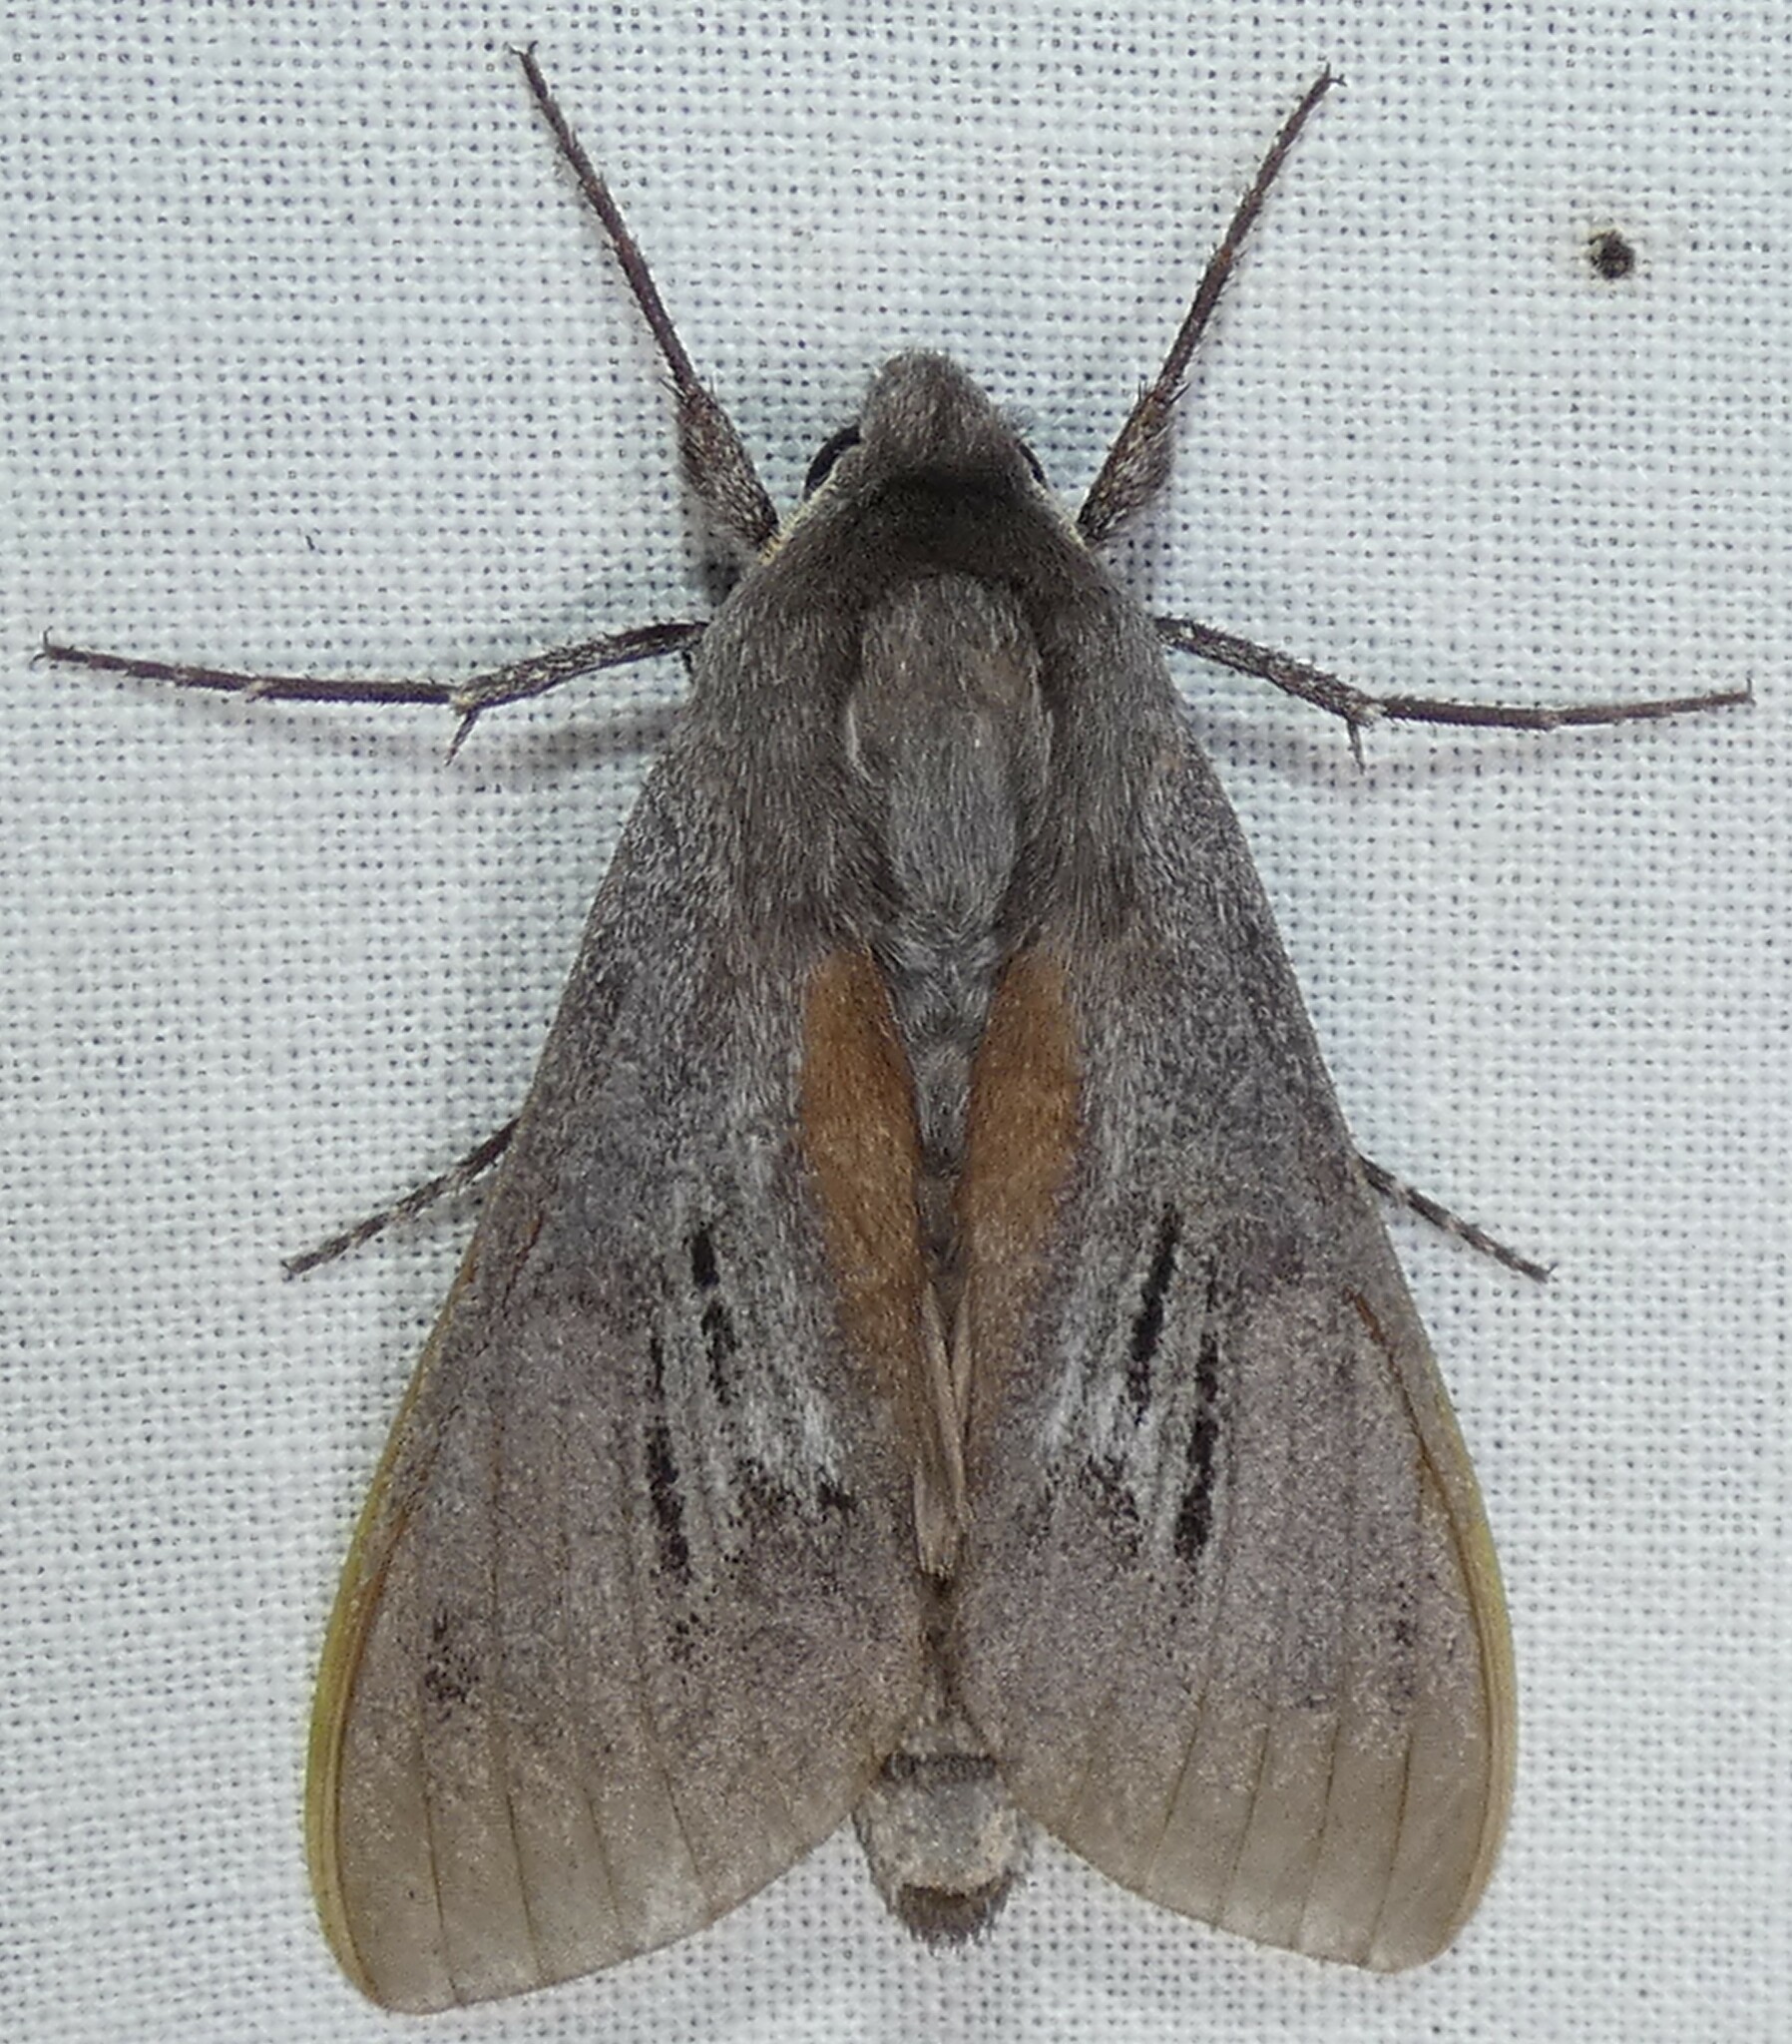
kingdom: Animalia
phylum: Arthropoda
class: Insecta
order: Lepidoptera
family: Sphingidae
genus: Lapara
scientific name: Lapara coniferarum
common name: Southern pine sphinx
